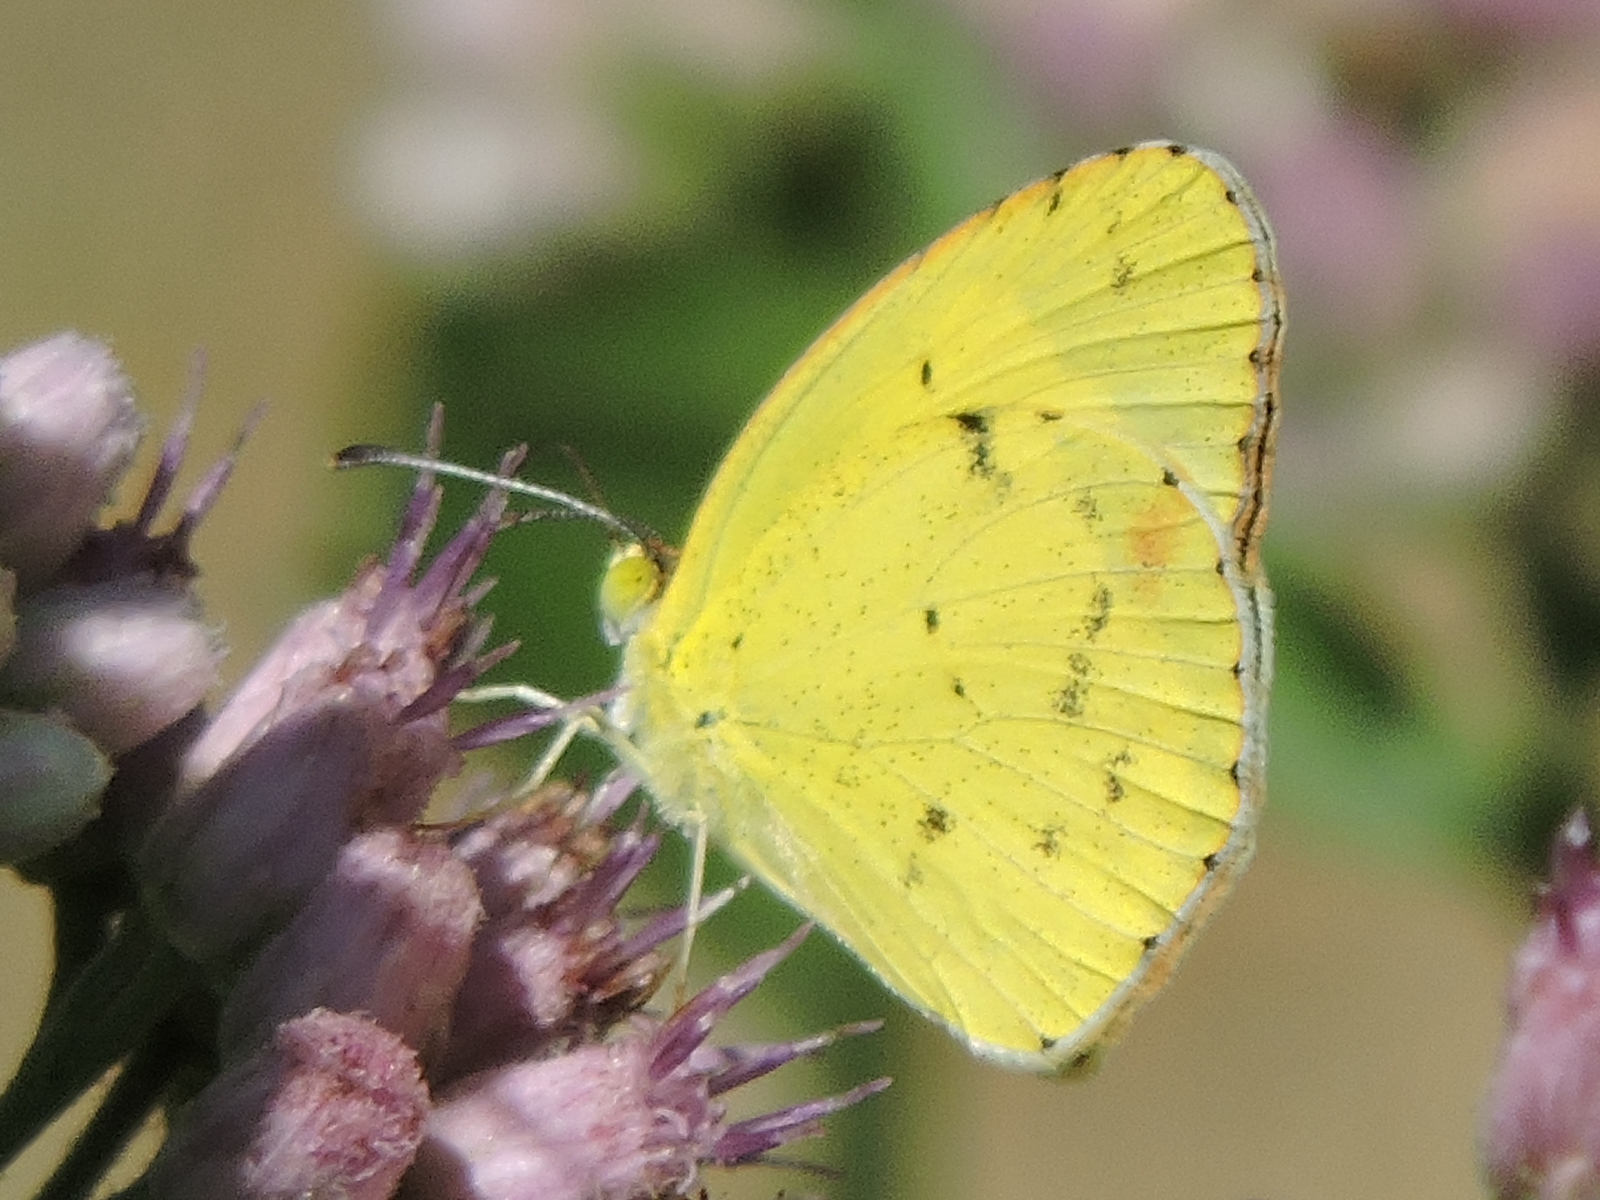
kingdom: Animalia
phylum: Arthropoda
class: Insecta
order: Lepidoptera
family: Pieridae
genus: Pyrisitia
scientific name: Pyrisitia lisa
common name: Little yellow
